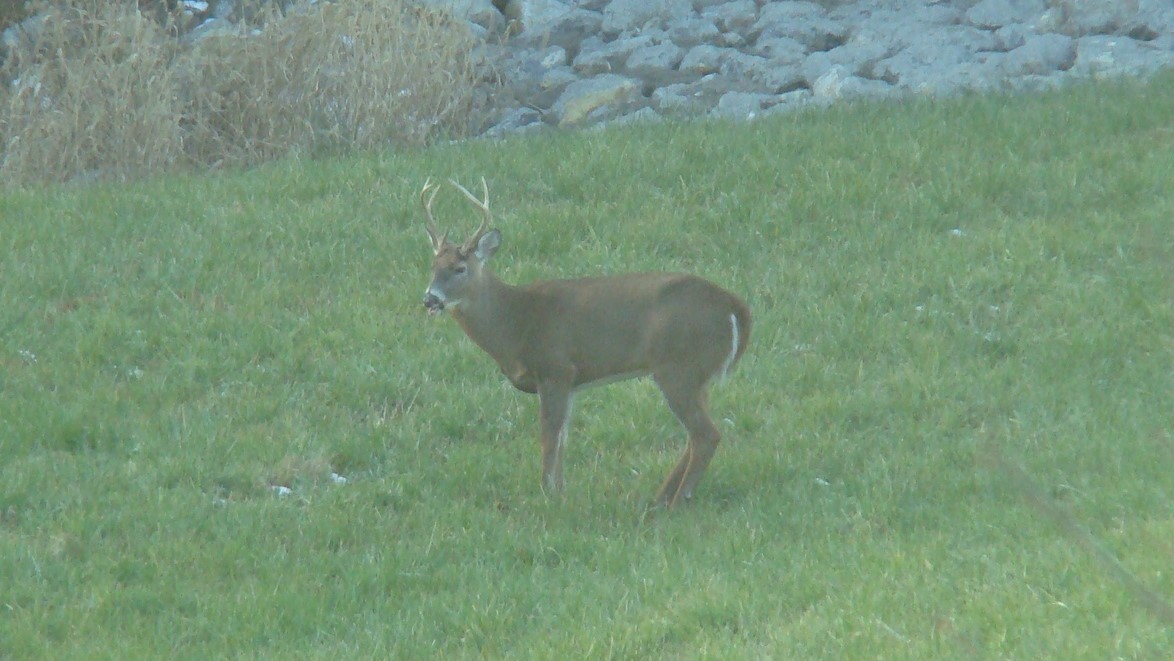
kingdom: Animalia
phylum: Chordata
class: Mammalia
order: Artiodactyla
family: Cervidae
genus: Odocoileus
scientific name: Odocoileus virginianus
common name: White-tailed deer
